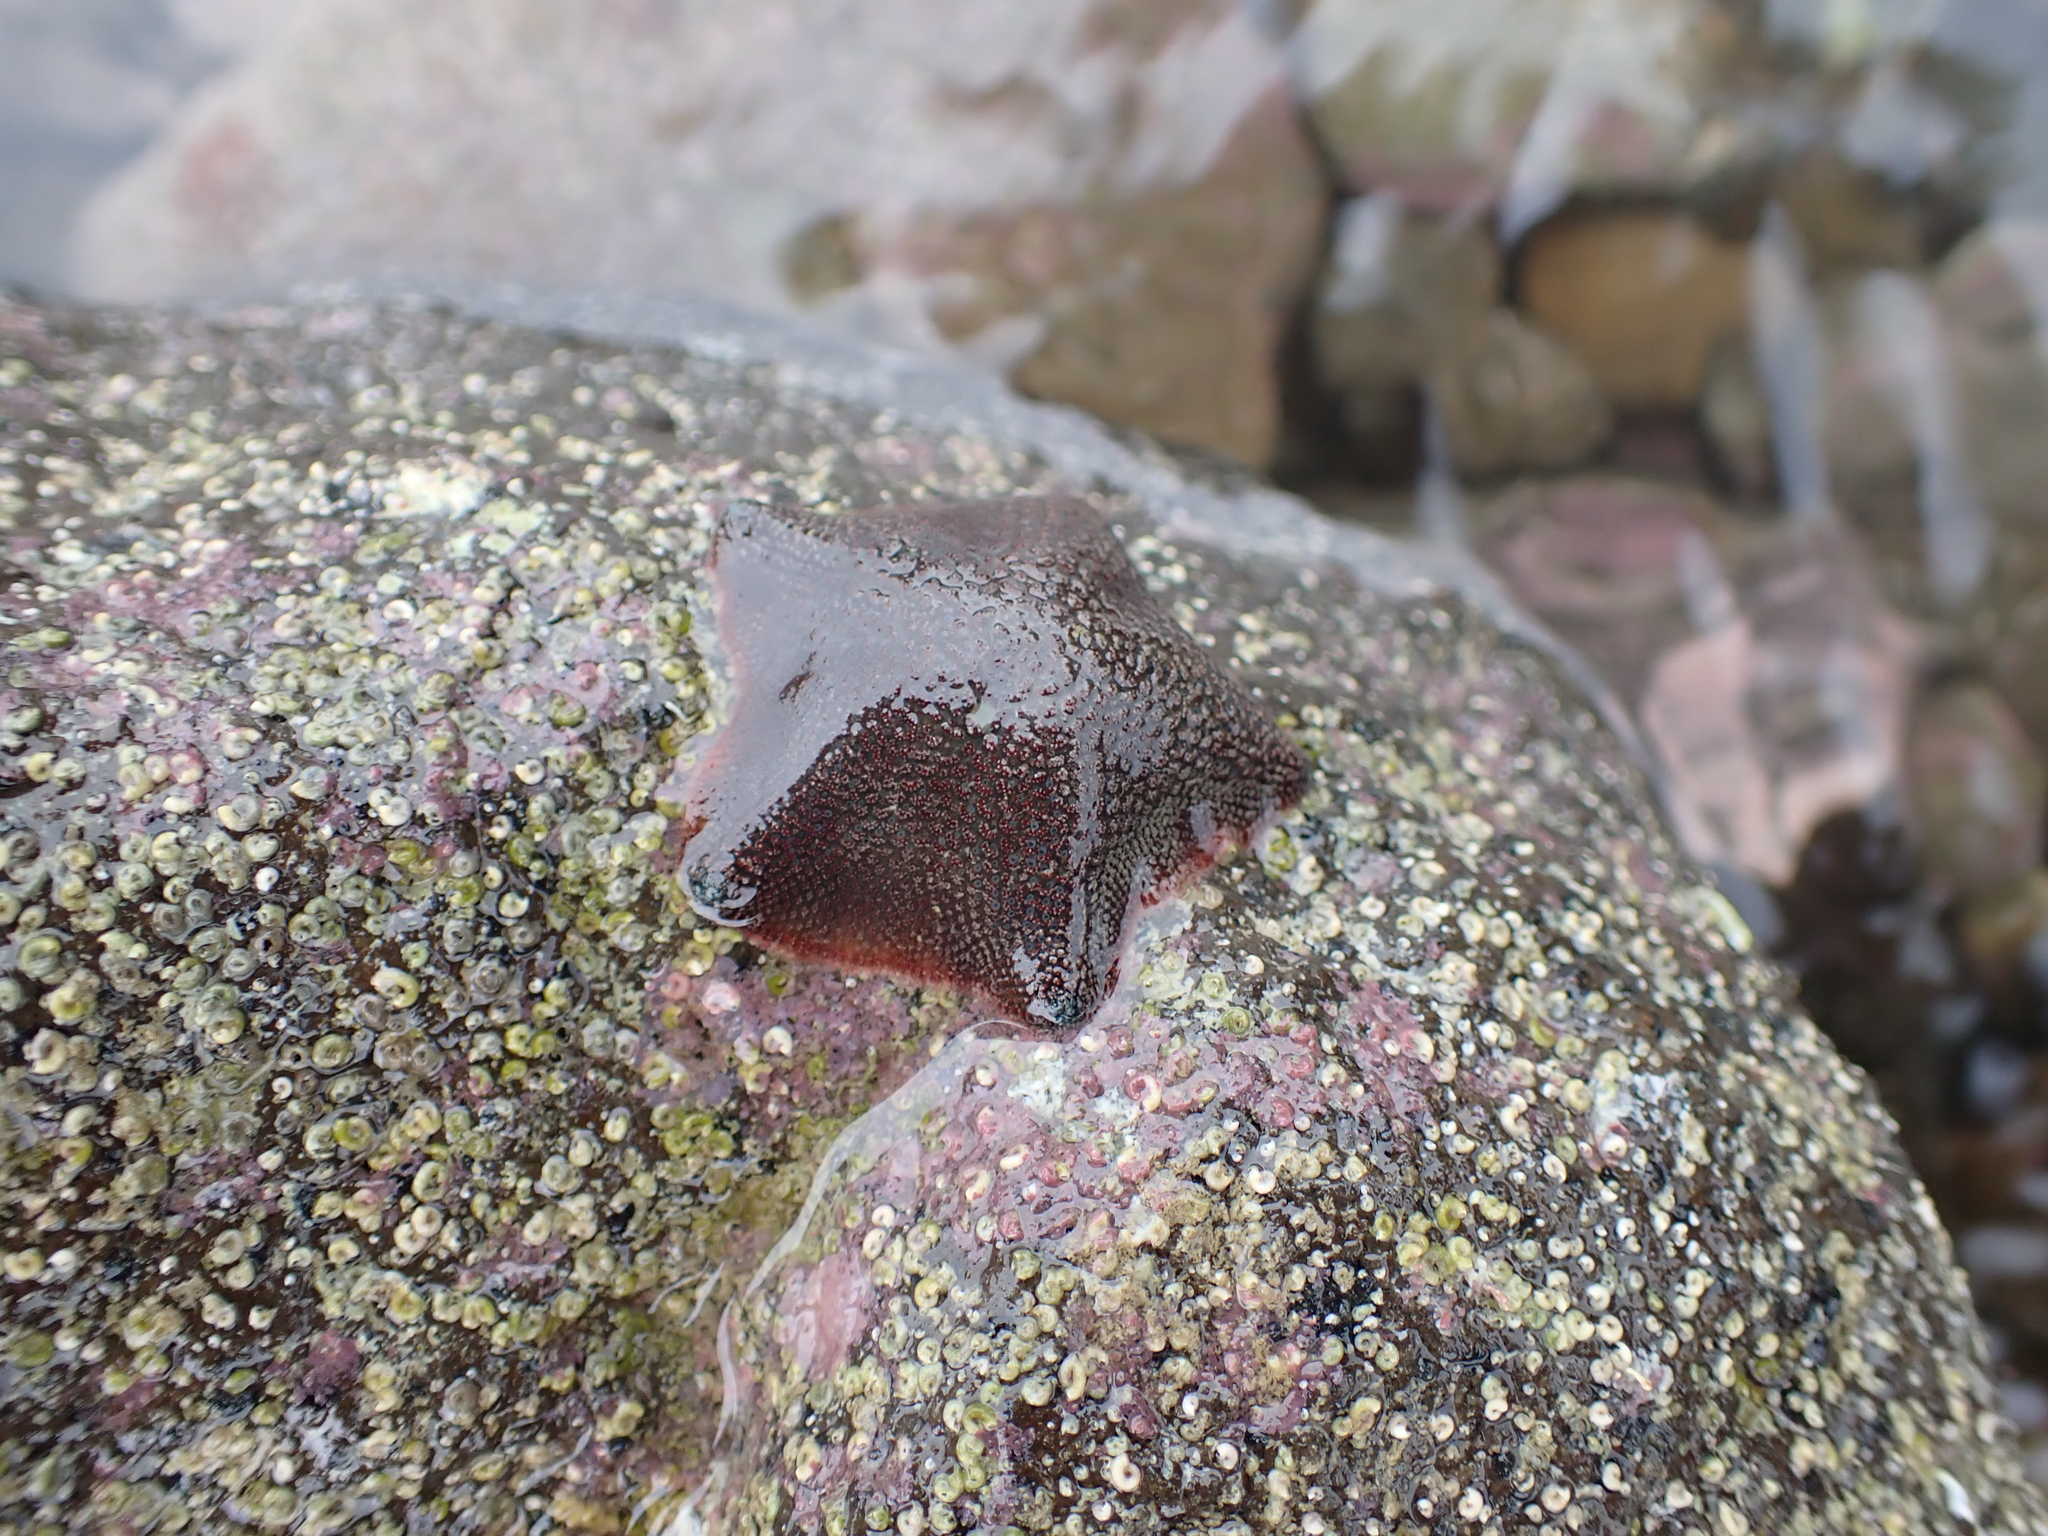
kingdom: Animalia
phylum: Echinodermata
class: Asteroidea
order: Valvatida
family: Asterinidae
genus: Patiriella
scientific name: Patiriella regularis
